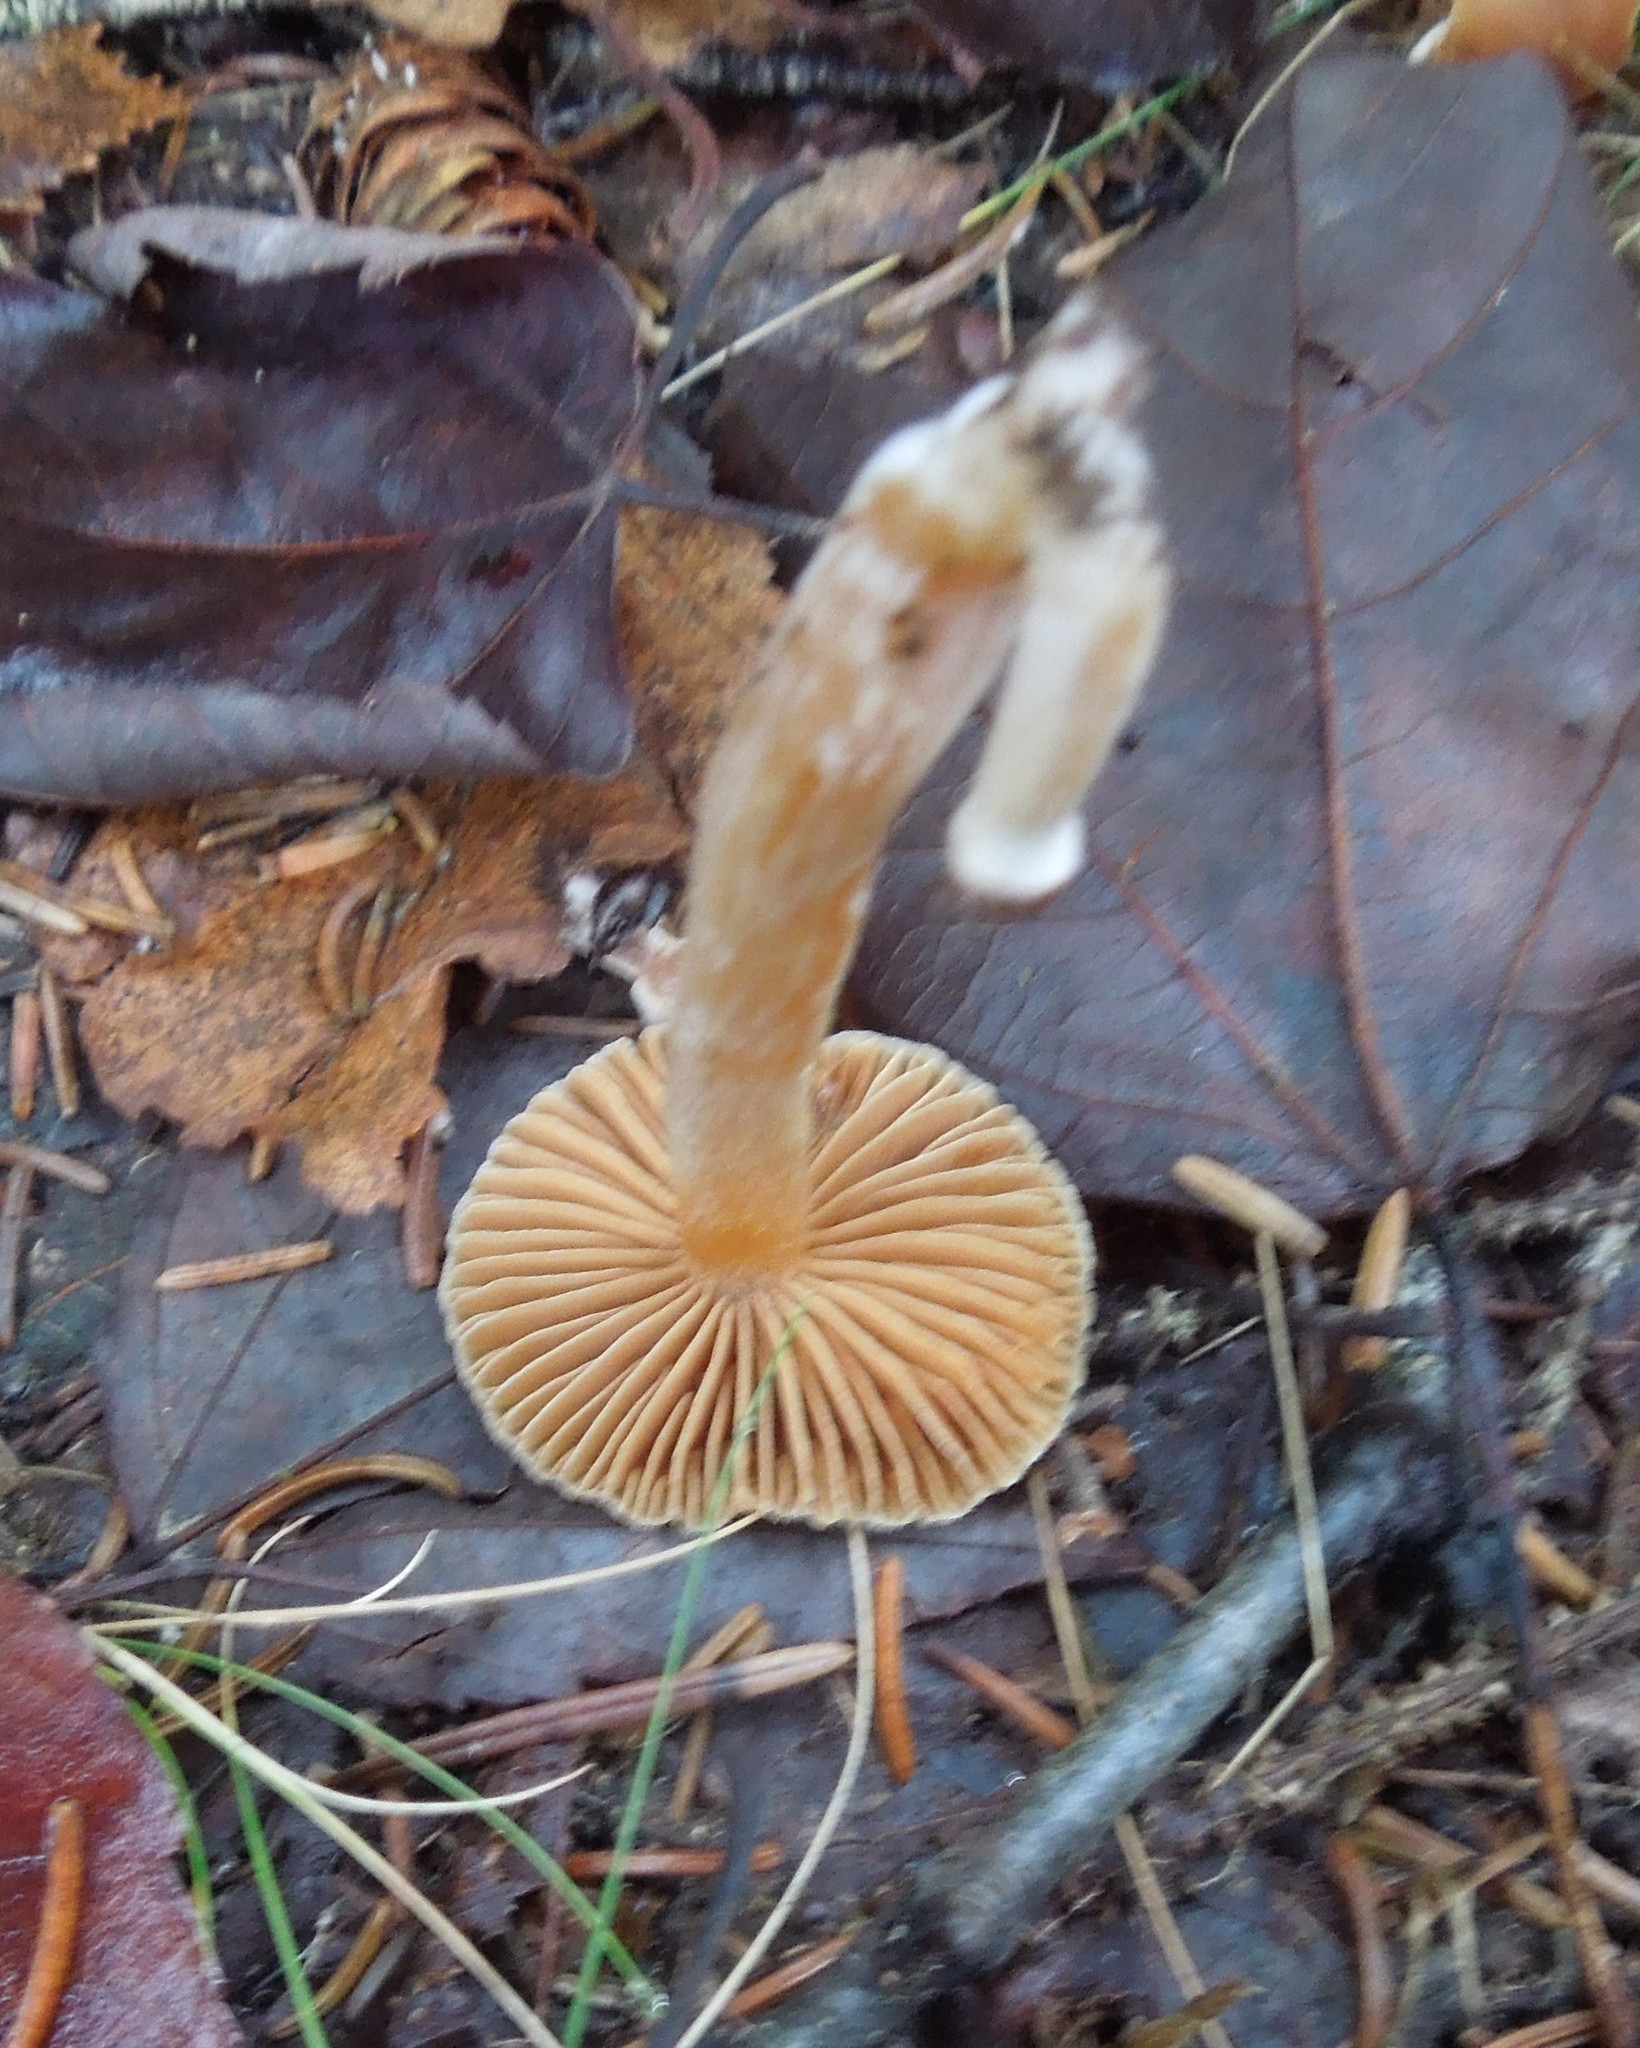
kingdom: Fungi
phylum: Basidiomycota
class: Agaricomycetes
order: Agaricales
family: Tubariaceae
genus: Tubaria
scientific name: Tubaria furfuracea
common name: Scurfy twiglet
